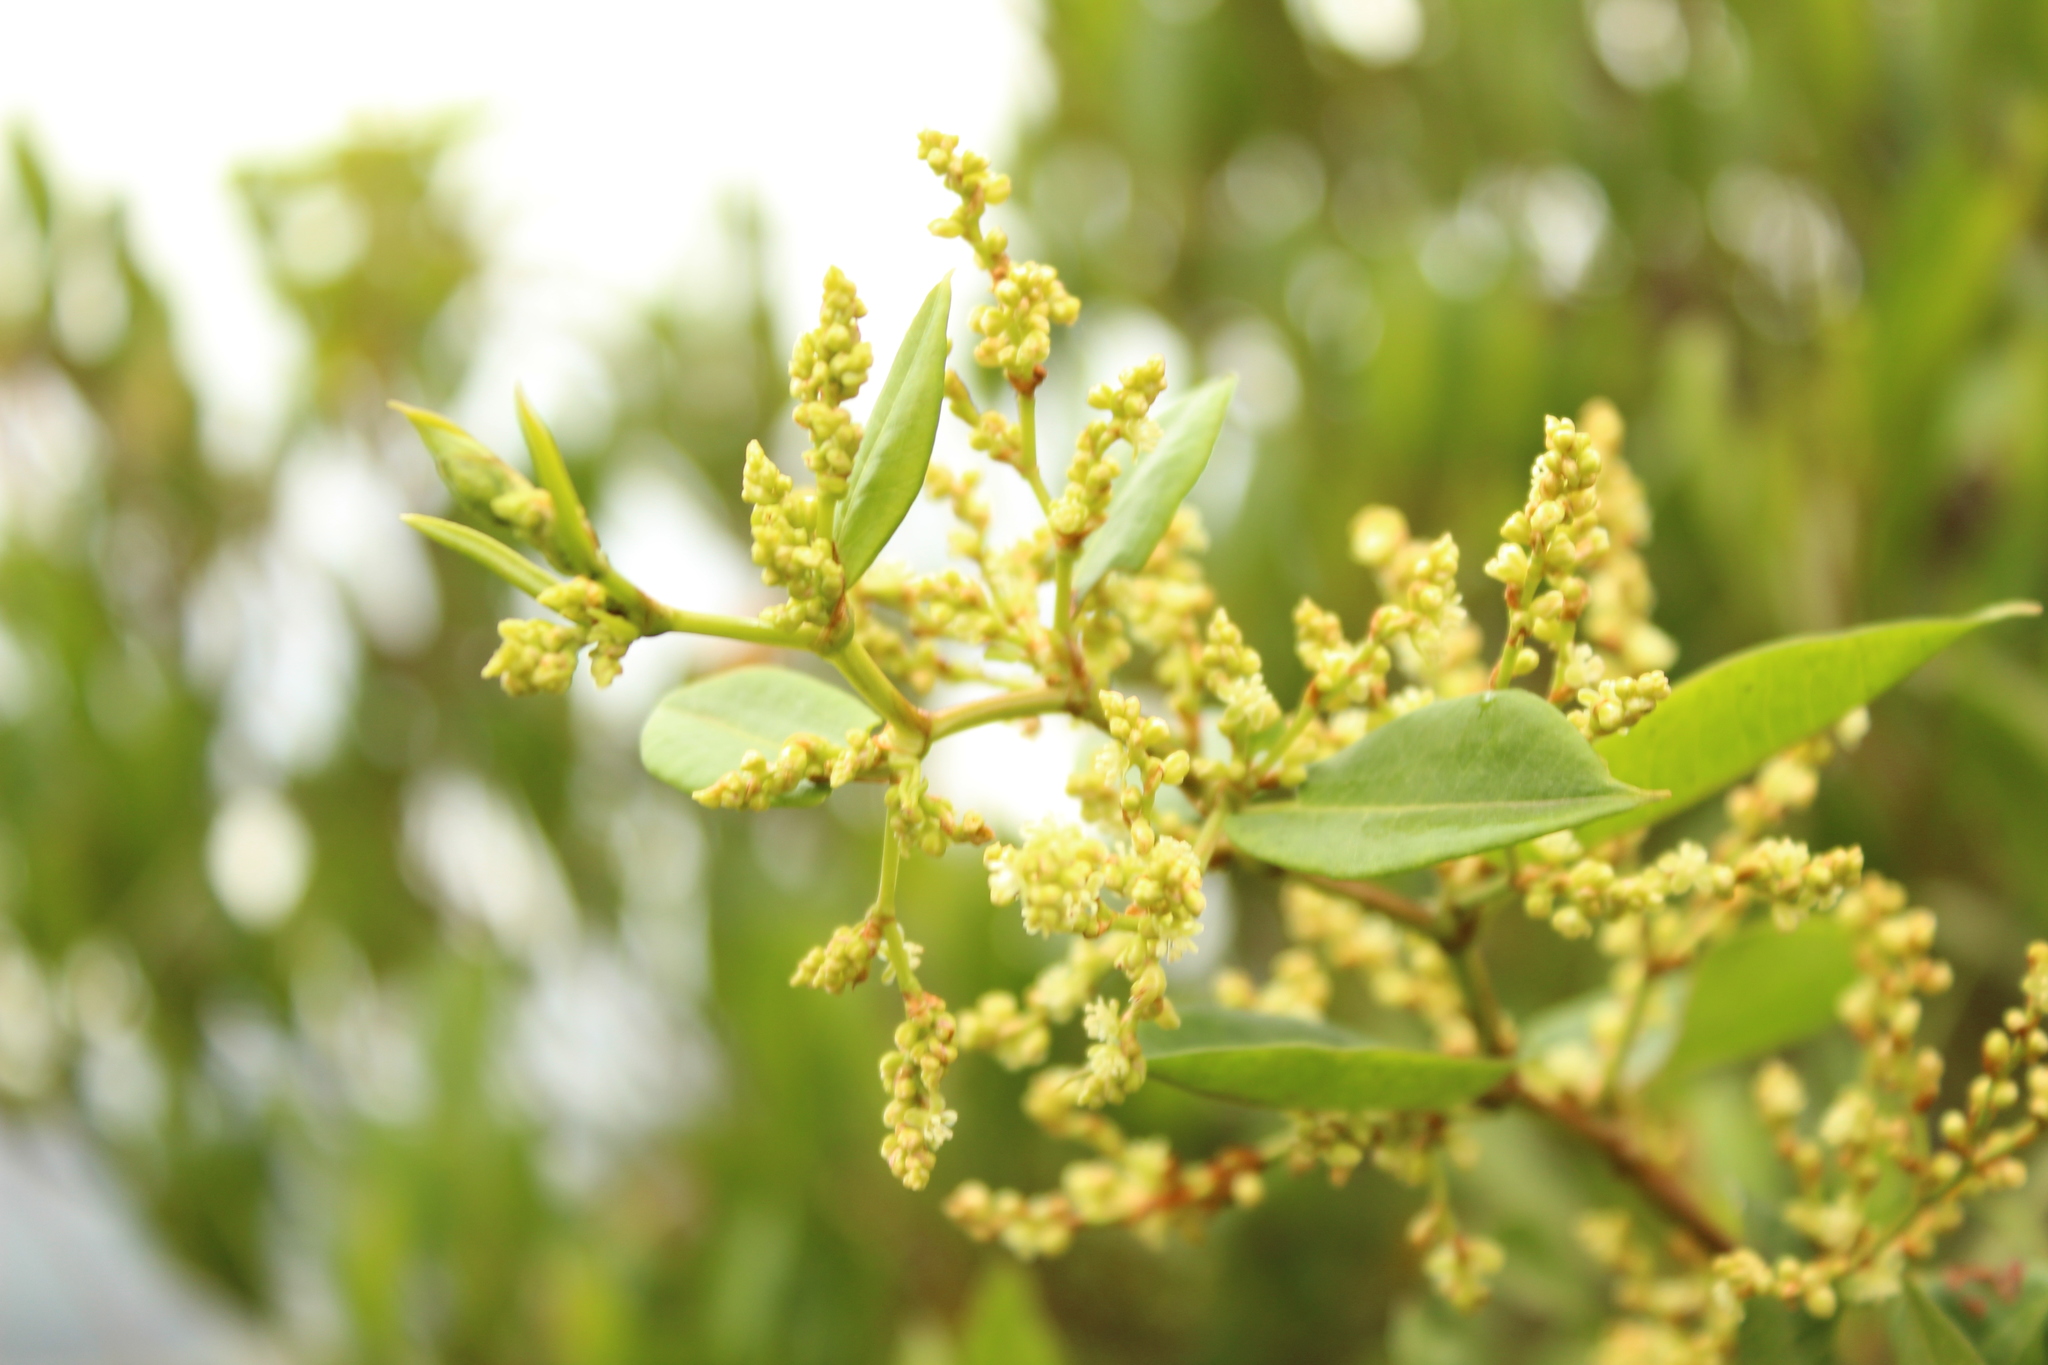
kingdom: Plantae
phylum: Tracheophyta
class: Magnoliopsida
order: Caryophyllales
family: Polygonaceae
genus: Muehlenbeckia
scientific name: Muehlenbeckia tamnifolia
